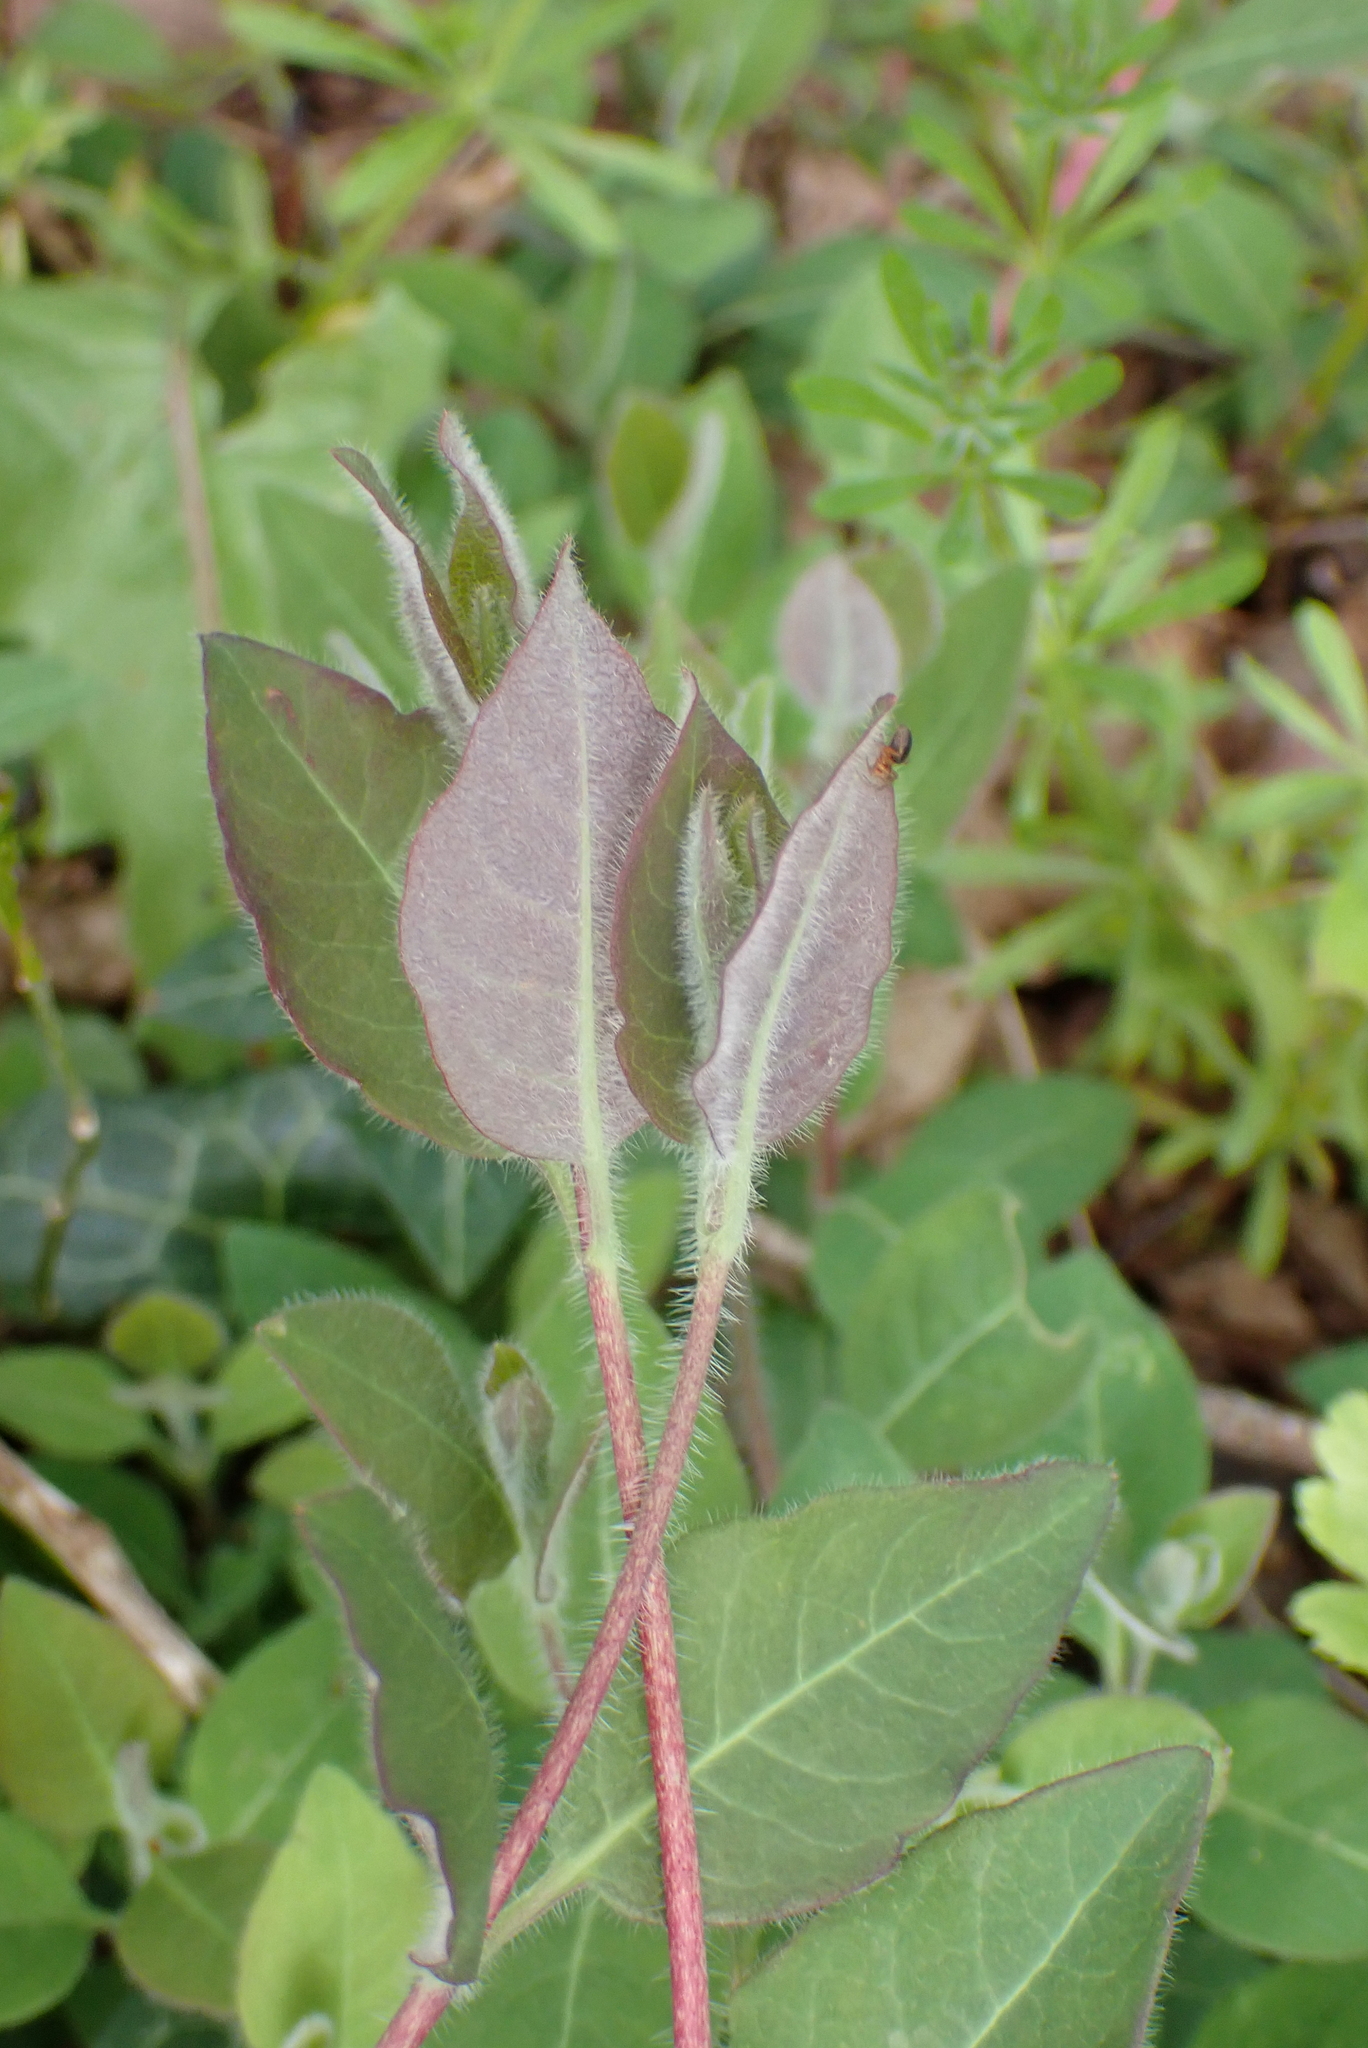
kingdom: Plantae
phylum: Tracheophyta
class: Magnoliopsida
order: Dipsacales
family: Caprifoliaceae
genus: Lonicera
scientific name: Lonicera periclymenum
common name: European honeysuckle
